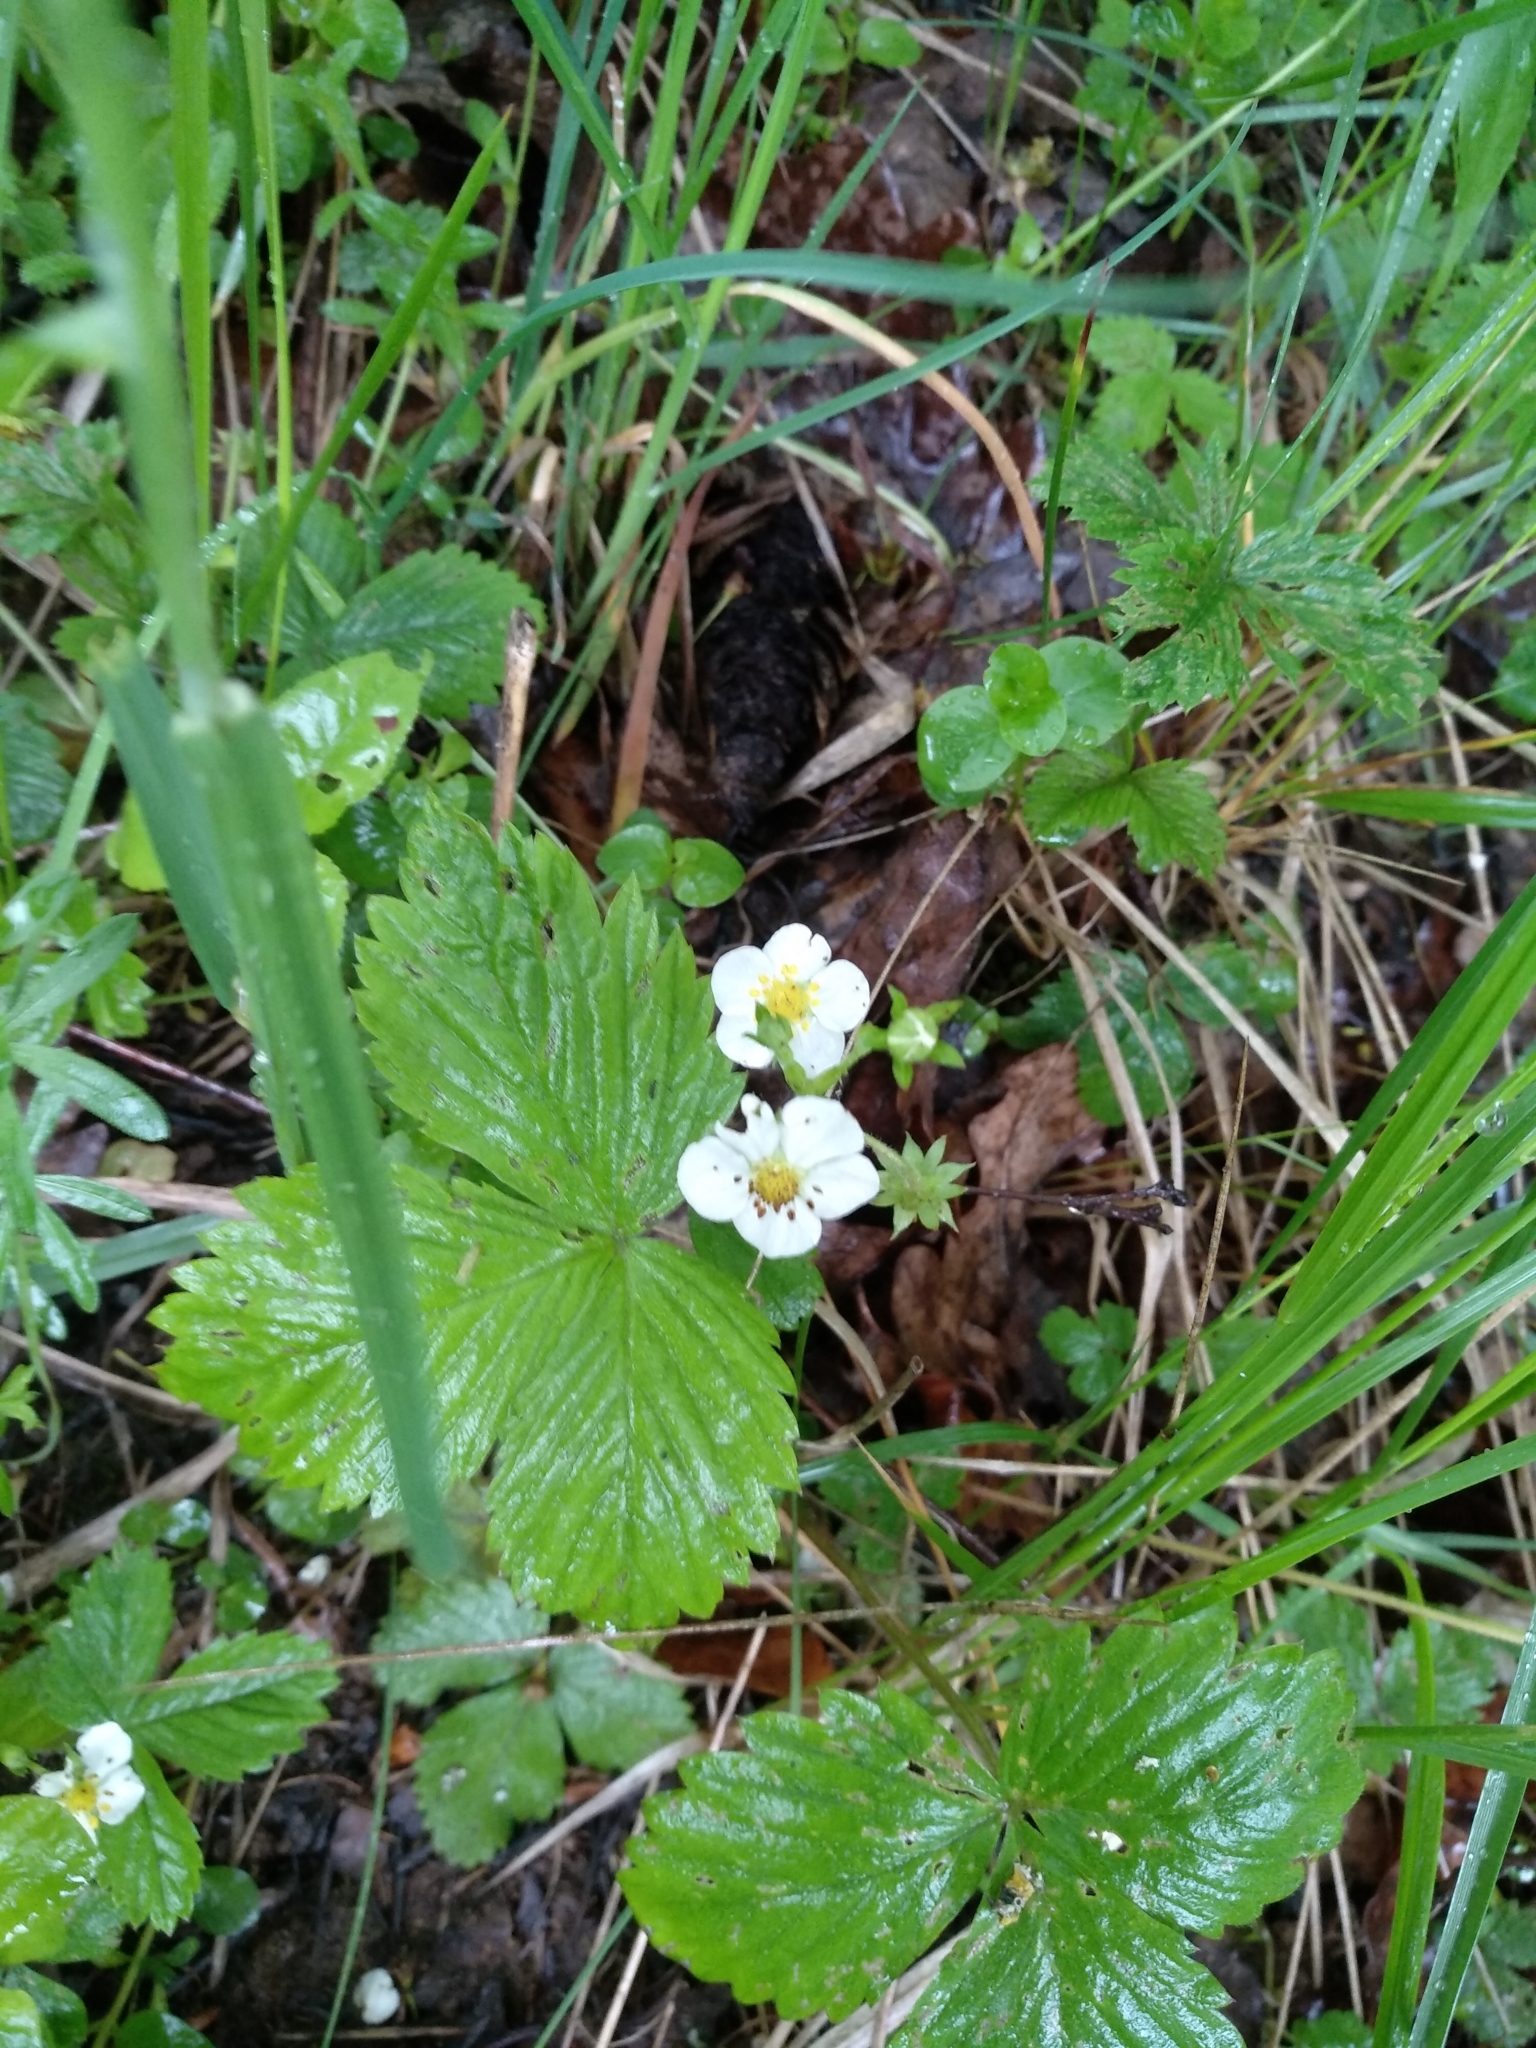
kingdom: Plantae
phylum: Tracheophyta
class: Magnoliopsida
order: Rosales
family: Rosaceae
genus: Fragaria
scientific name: Fragaria vesca
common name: Wild strawberry
